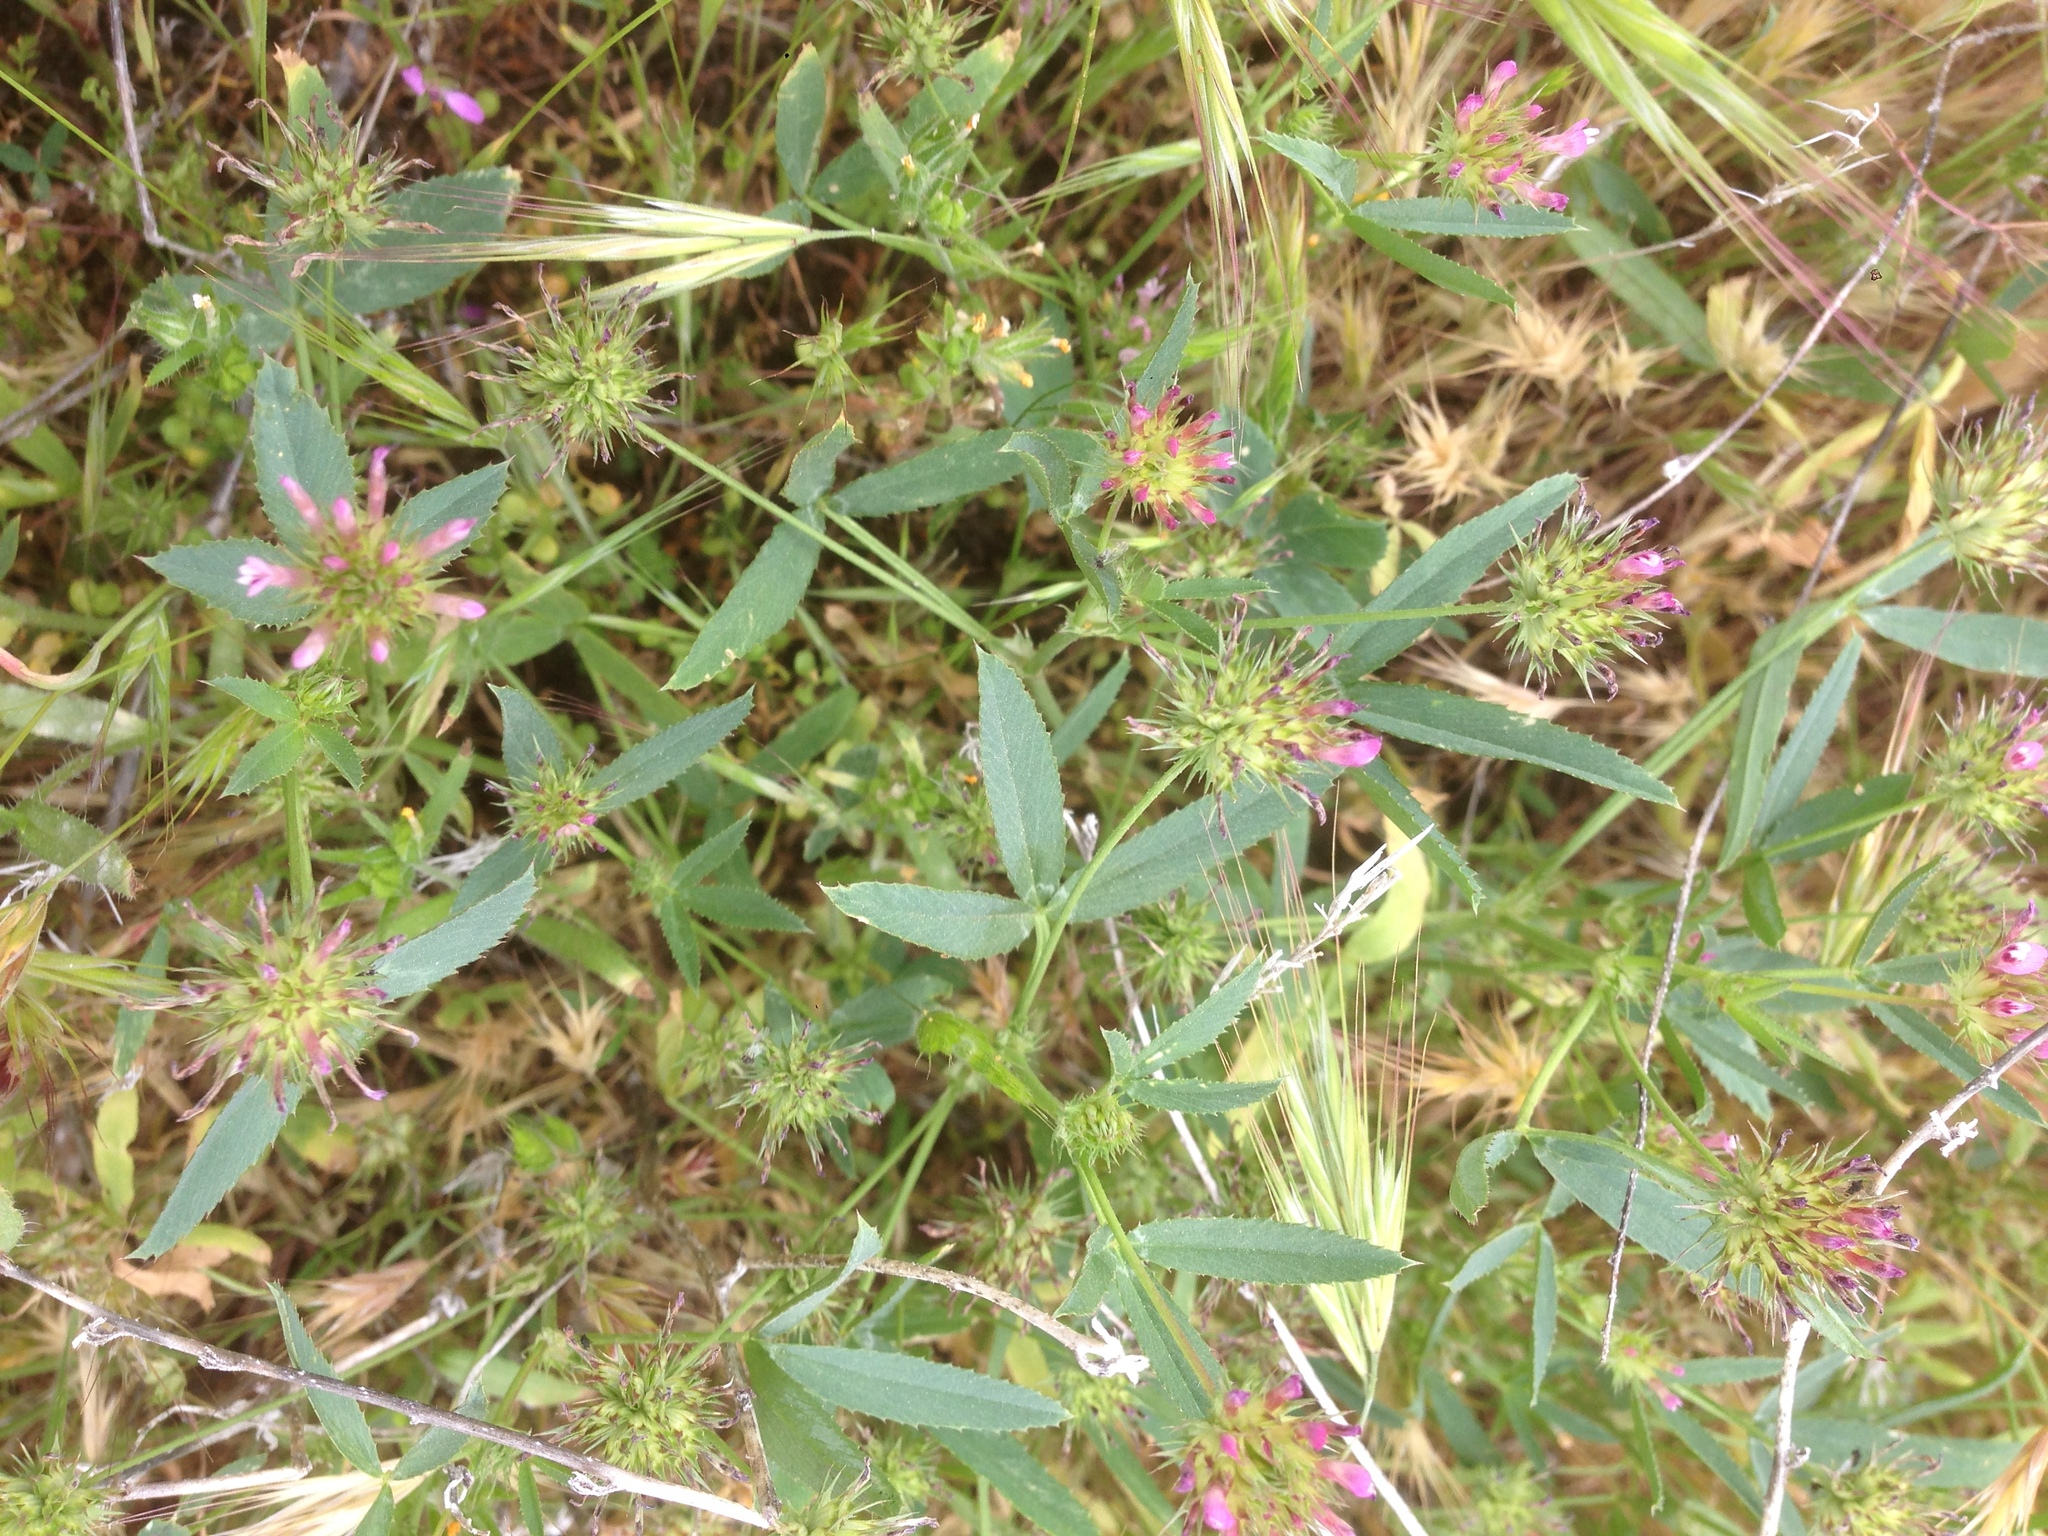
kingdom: Plantae
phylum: Tracheophyta
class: Magnoliopsida
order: Fabales
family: Fabaceae
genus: Trifolium
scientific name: Trifolium willdenovii
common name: Tomcat clover
